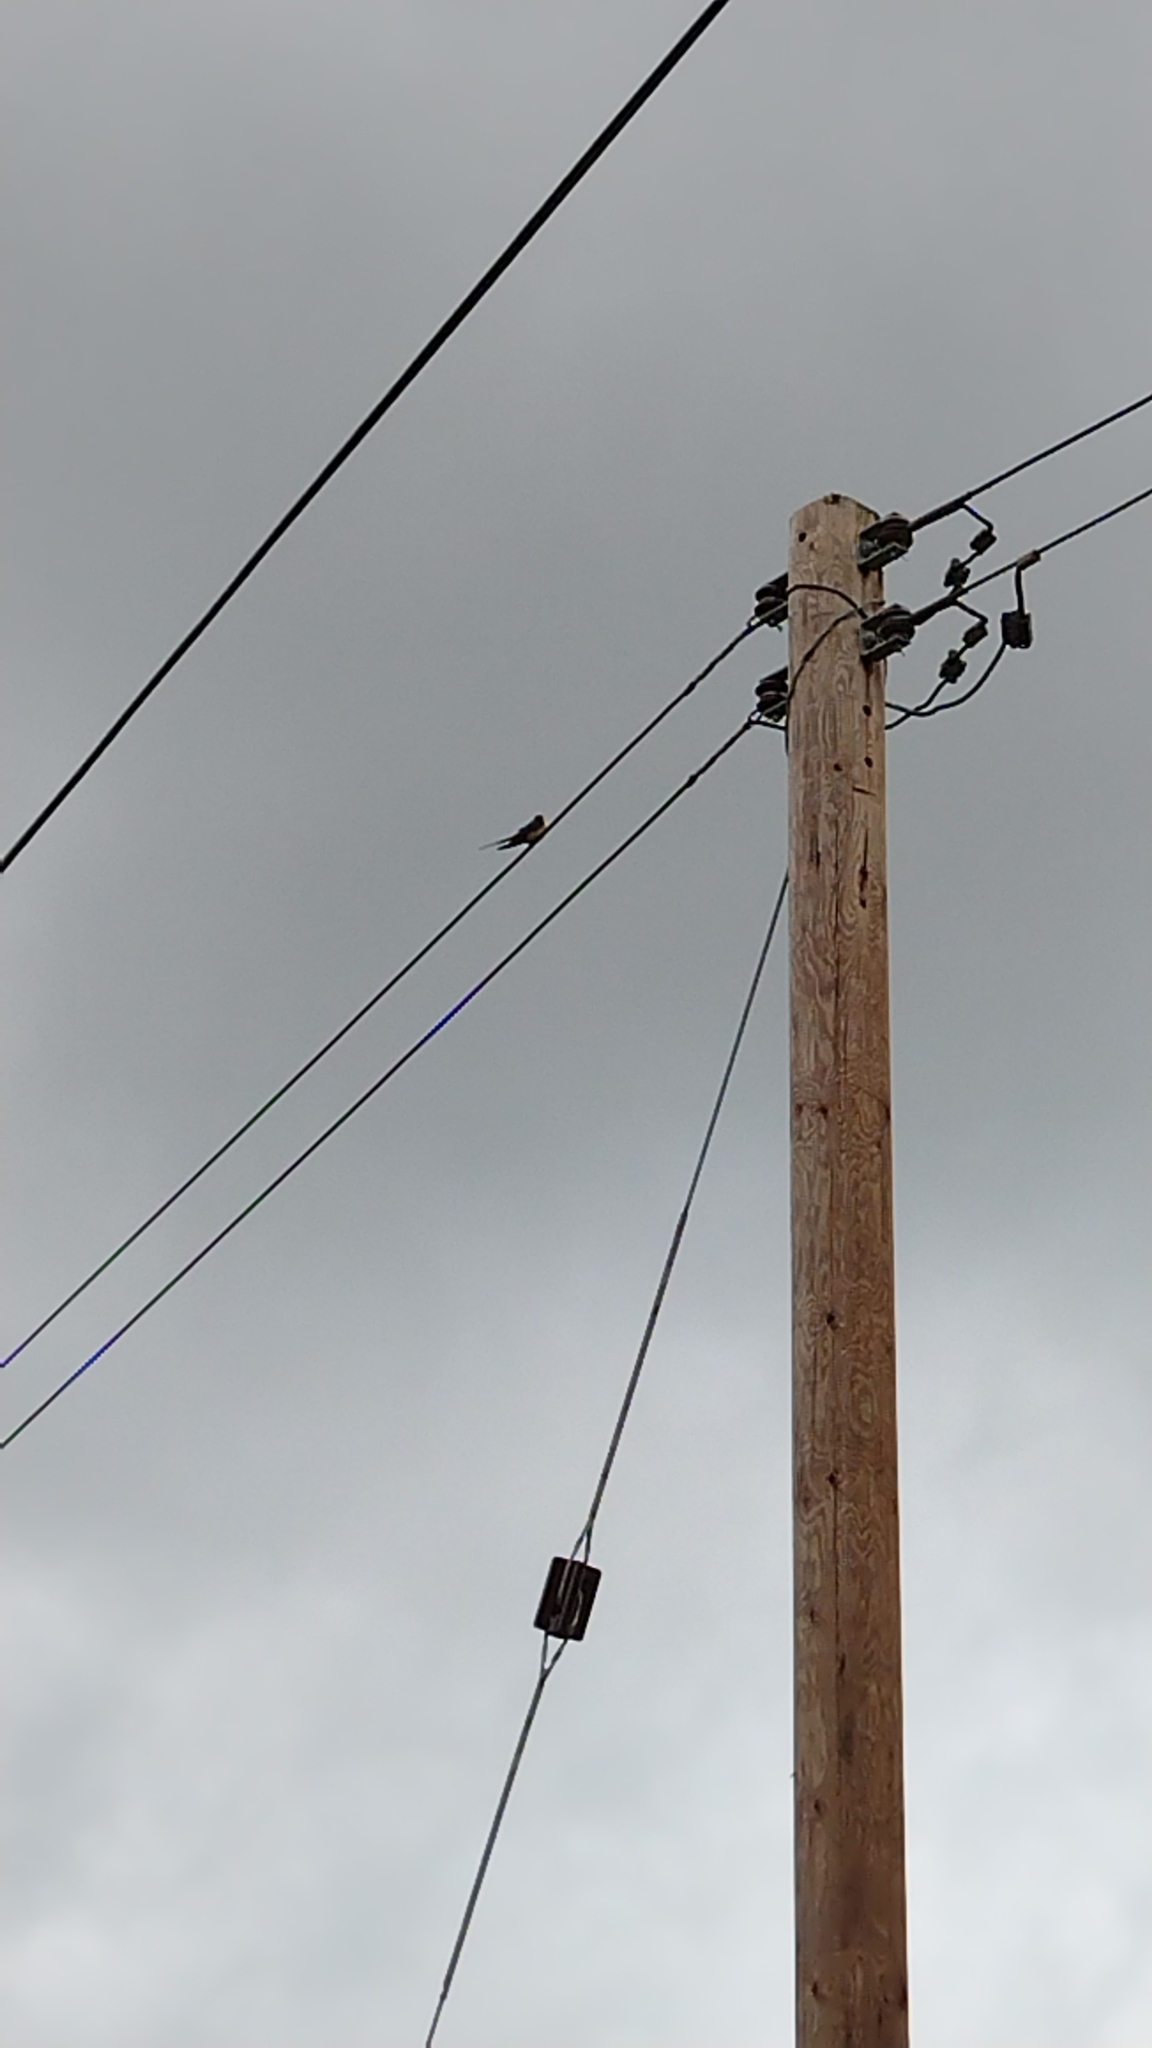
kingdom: Animalia
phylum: Chordata
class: Aves
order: Passeriformes
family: Hirundinidae
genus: Hirundo
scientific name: Hirundo rustica
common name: Barn swallow
